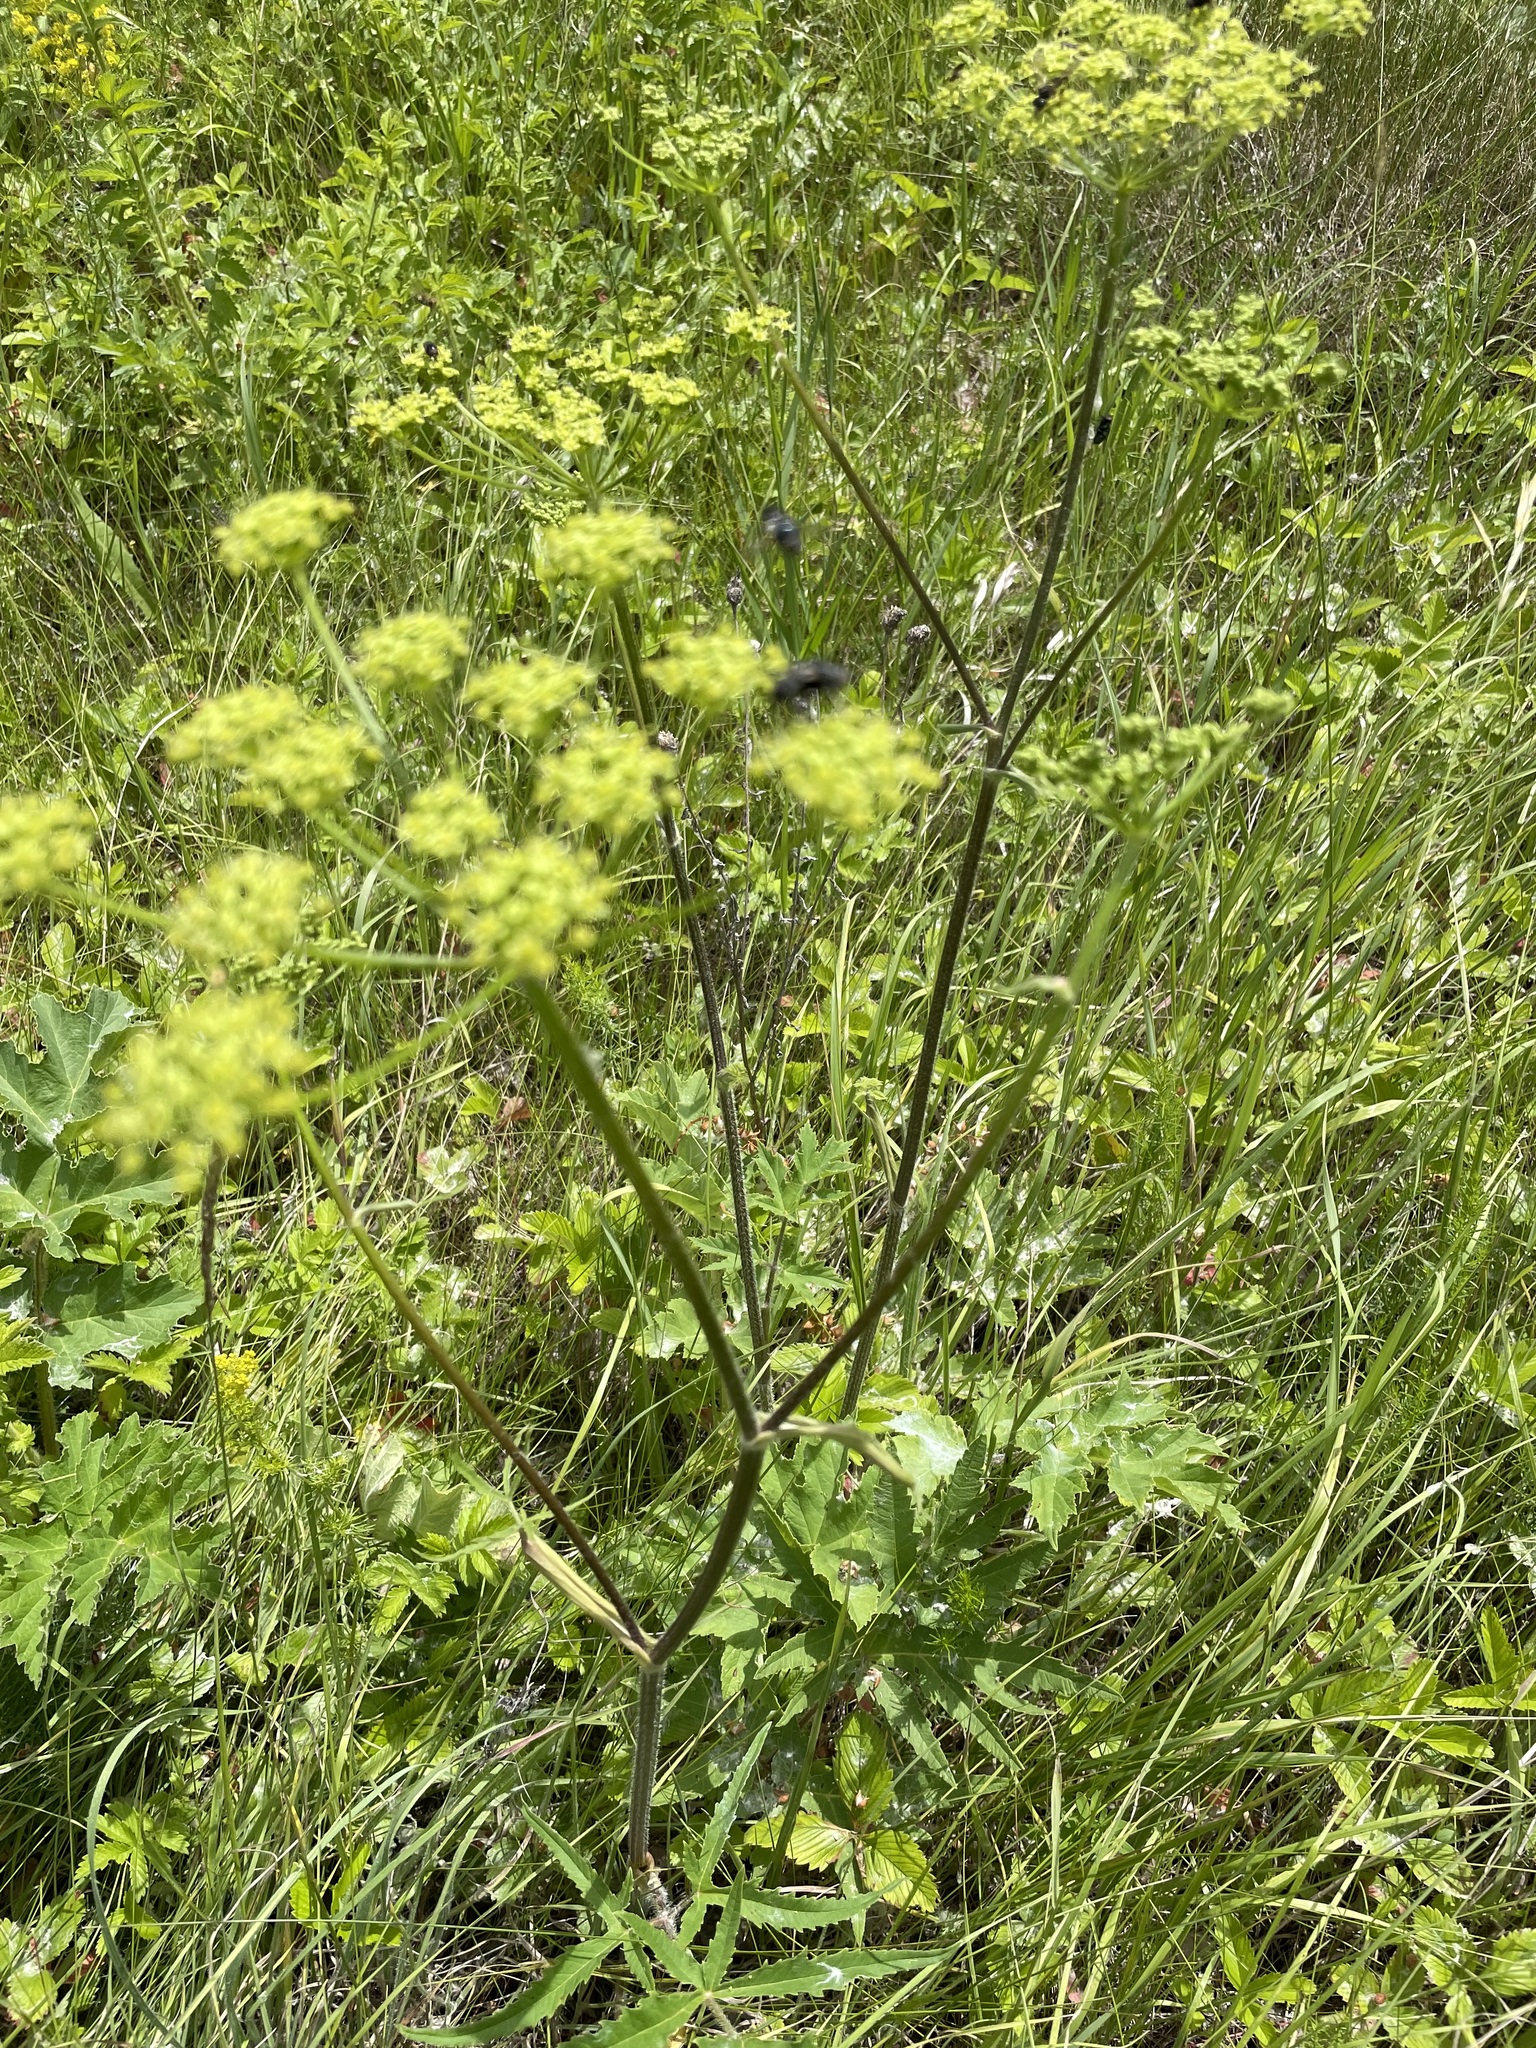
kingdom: Plantae
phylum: Tracheophyta
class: Magnoliopsida
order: Apiales
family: Apiaceae
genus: Heracleum
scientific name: Heracleum sphondylium
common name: Hogweed
